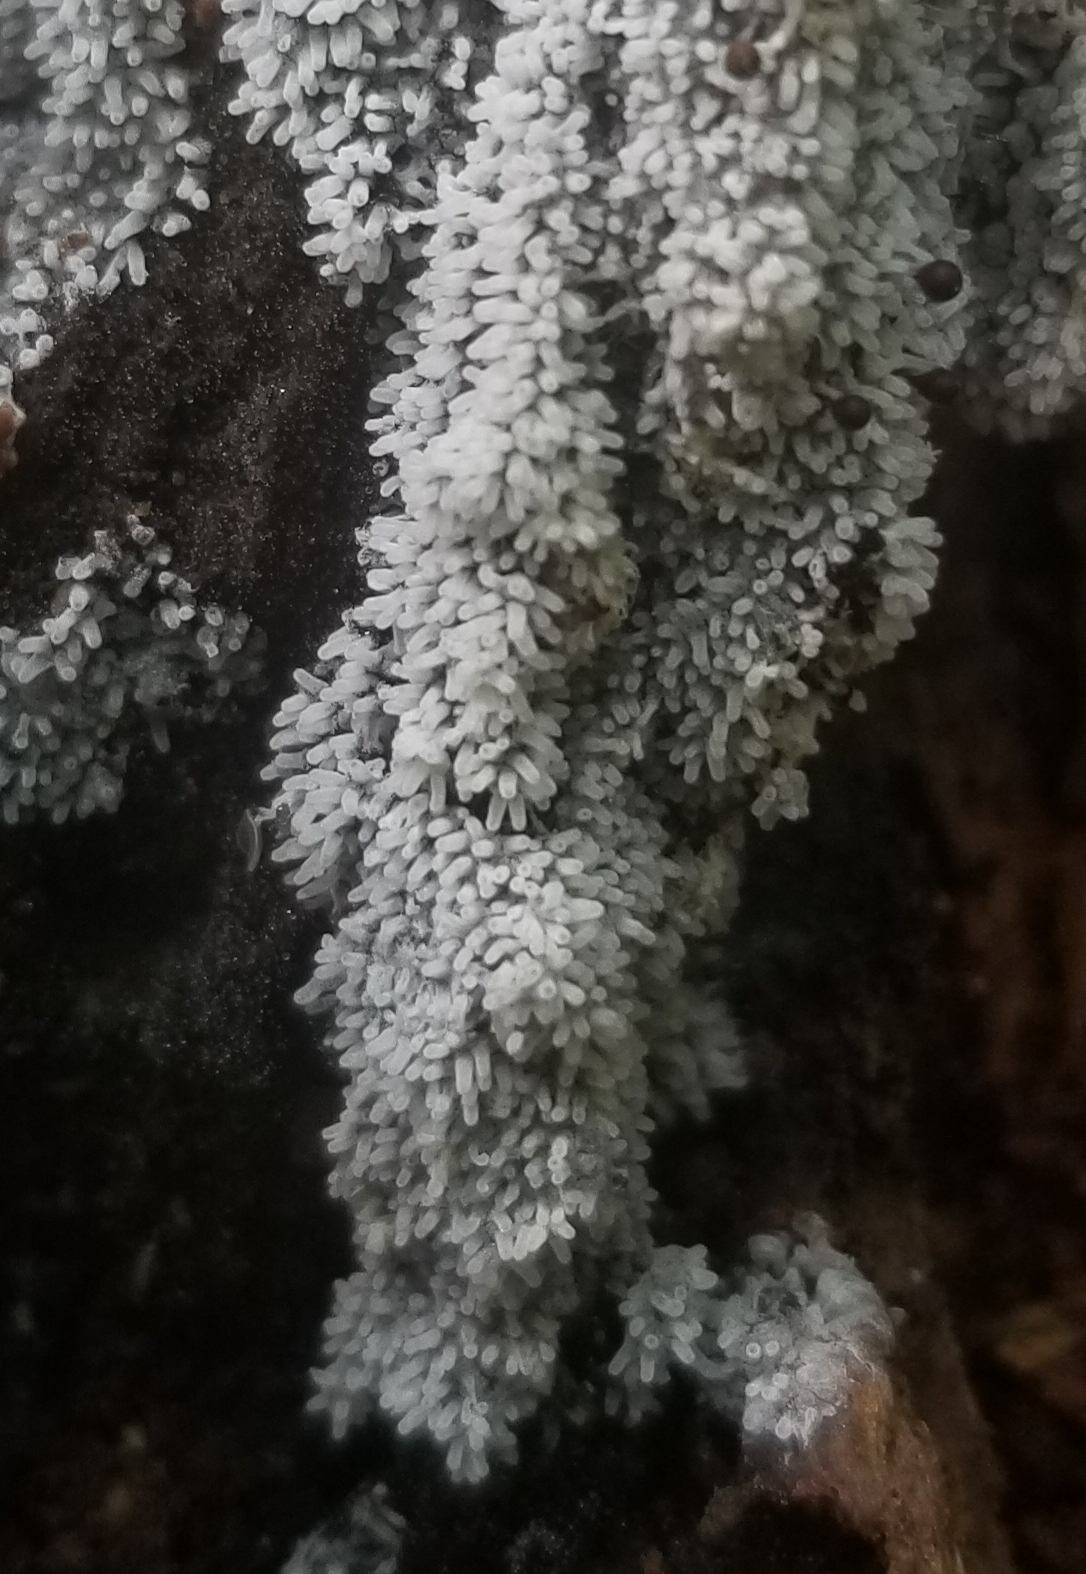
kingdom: Protozoa
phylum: Mycetozoa
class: Protosteliomycetes
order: Ceratiomyxales
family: Ceratiomyxaceae
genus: Ceratiomyxa
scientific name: Ceratiomyxa fruticulosa
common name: Honeycomb coral slime mold
